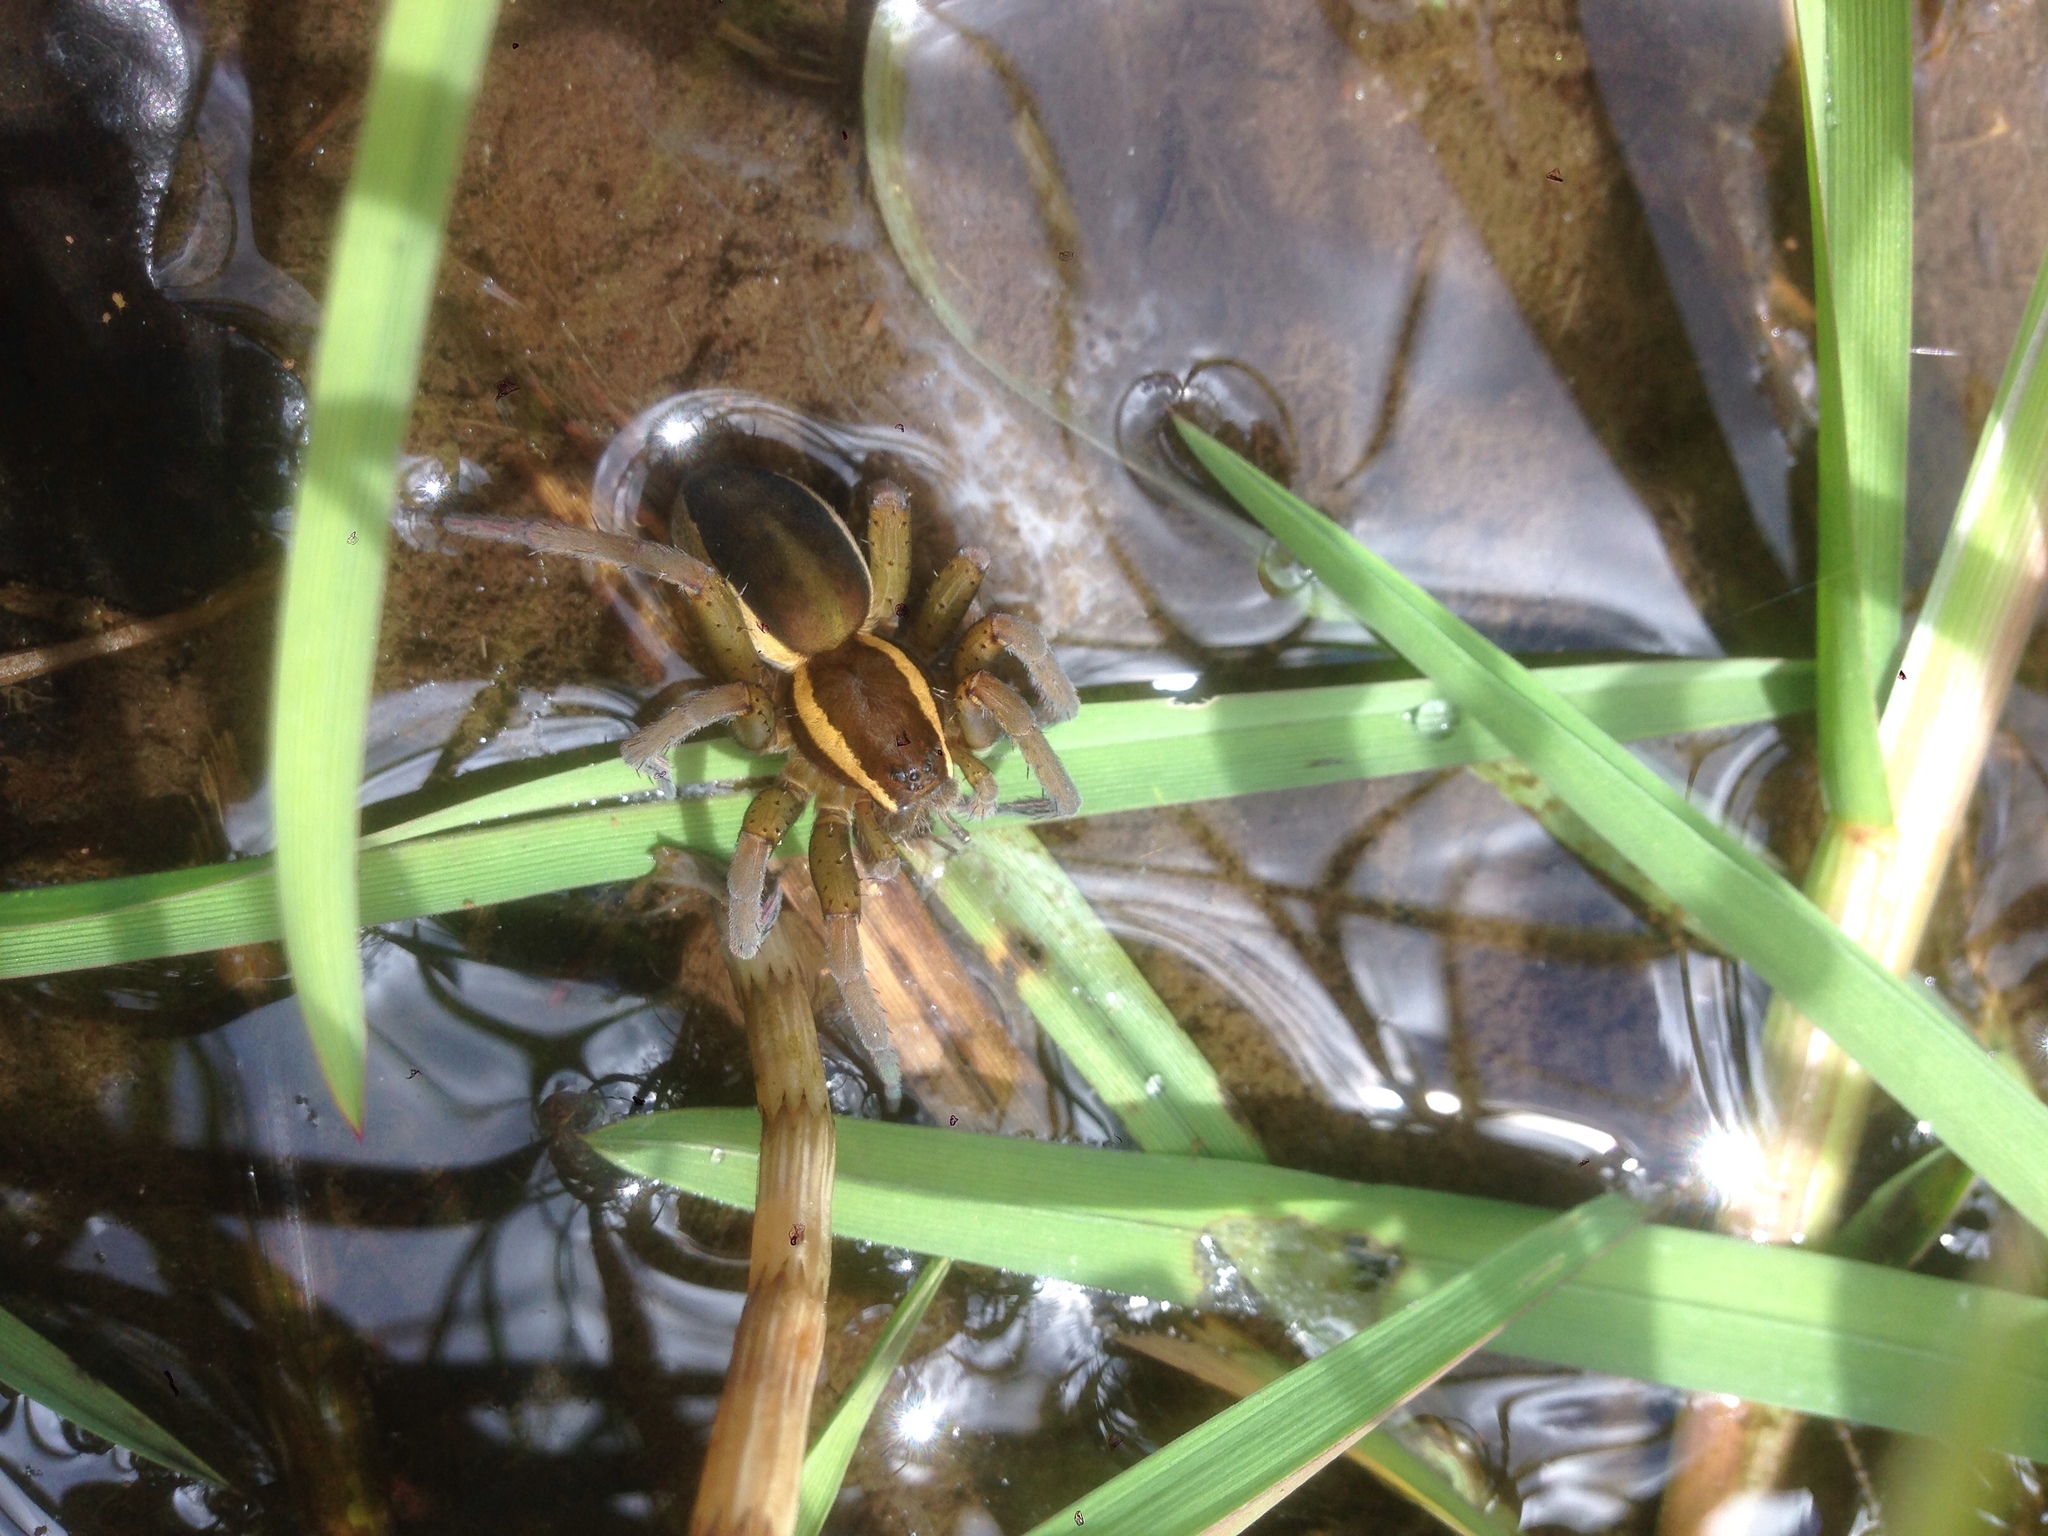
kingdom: Animalia
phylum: Arthropoda
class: Arachnida
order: Araneae
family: Pisauridae
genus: Dolomedes
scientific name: Dolomedes fimbriatus
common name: Raft spider
